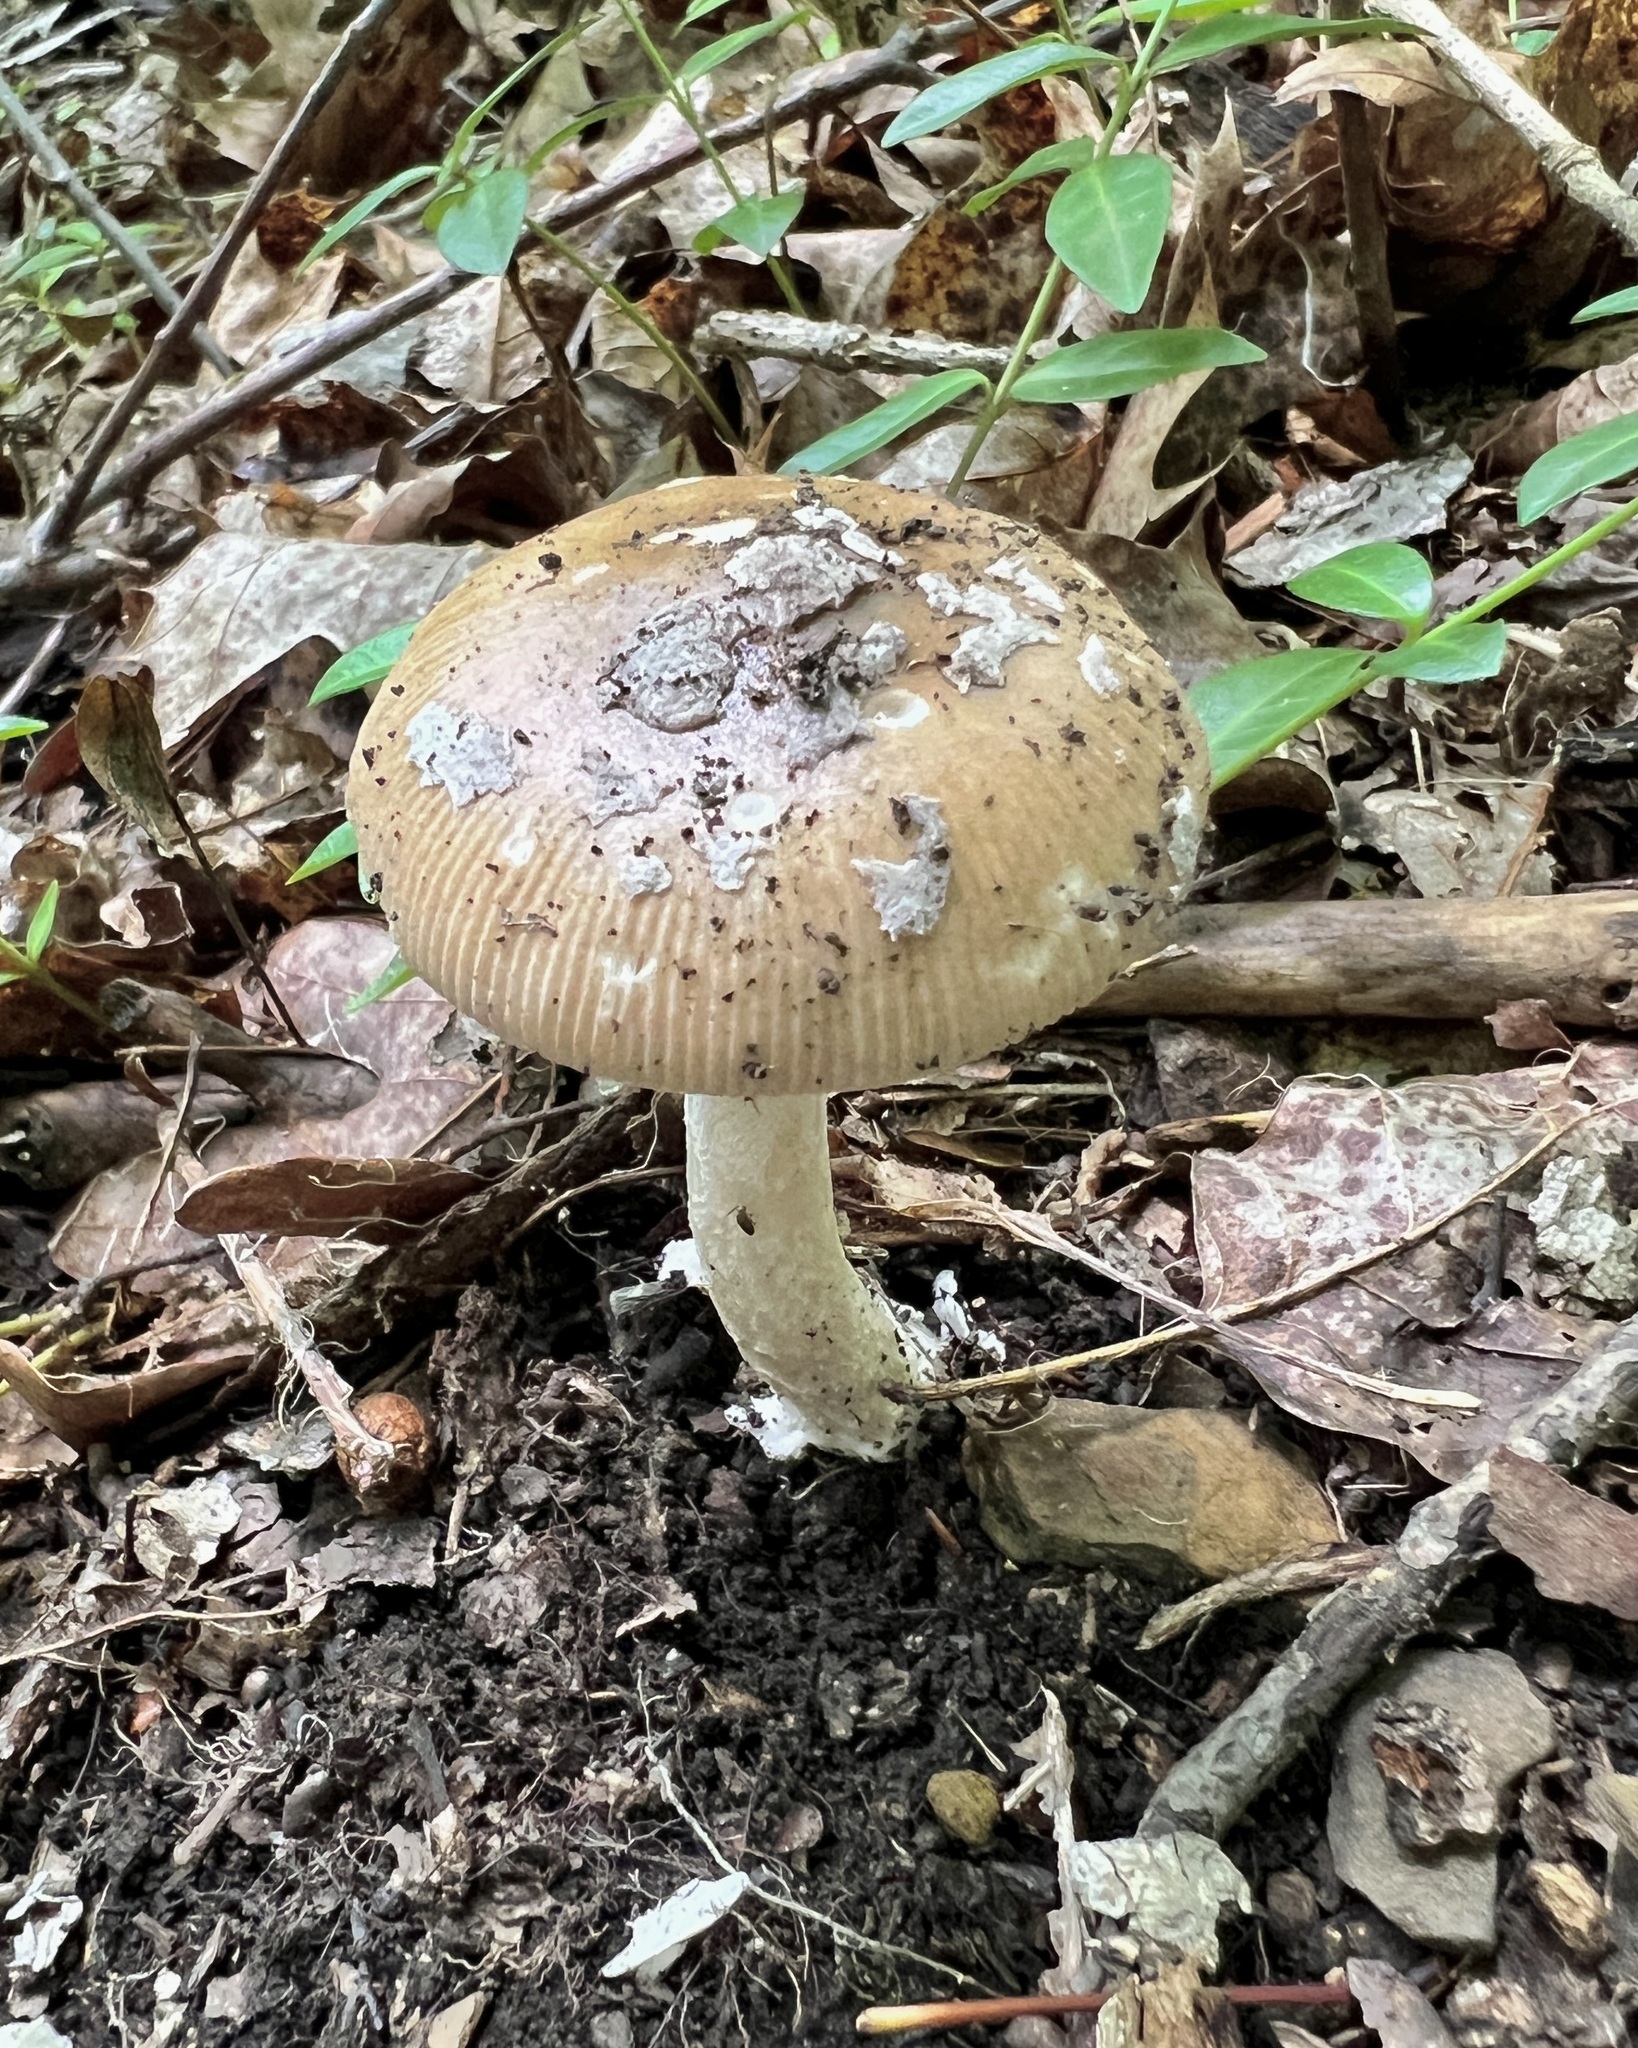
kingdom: Fungi
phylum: Basidiomycota
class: Agaricomycetes
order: Agaricales
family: Amanitaceae
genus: Amanita
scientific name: Amanita rhacopus
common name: Shaggy legged ringless amanita
